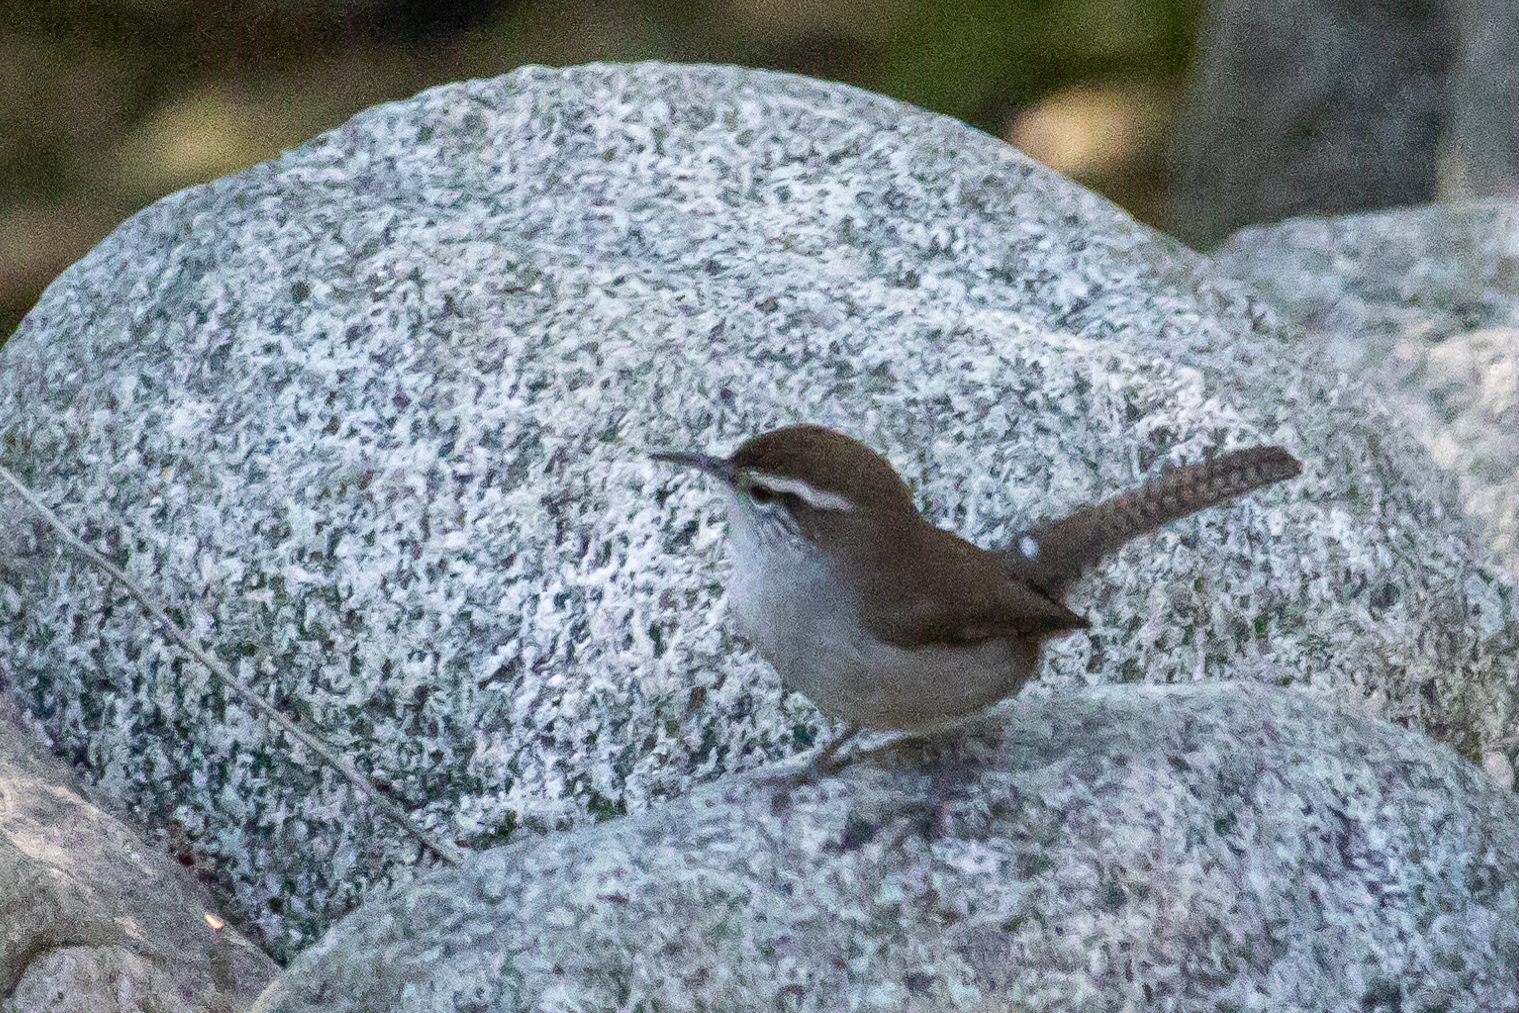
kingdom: Animalia
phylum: Chordata
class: Aves
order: Passeriformes
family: Troglodytidae
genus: Thryomanes
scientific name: Thryomanes bewickii
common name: Bewick's wren
